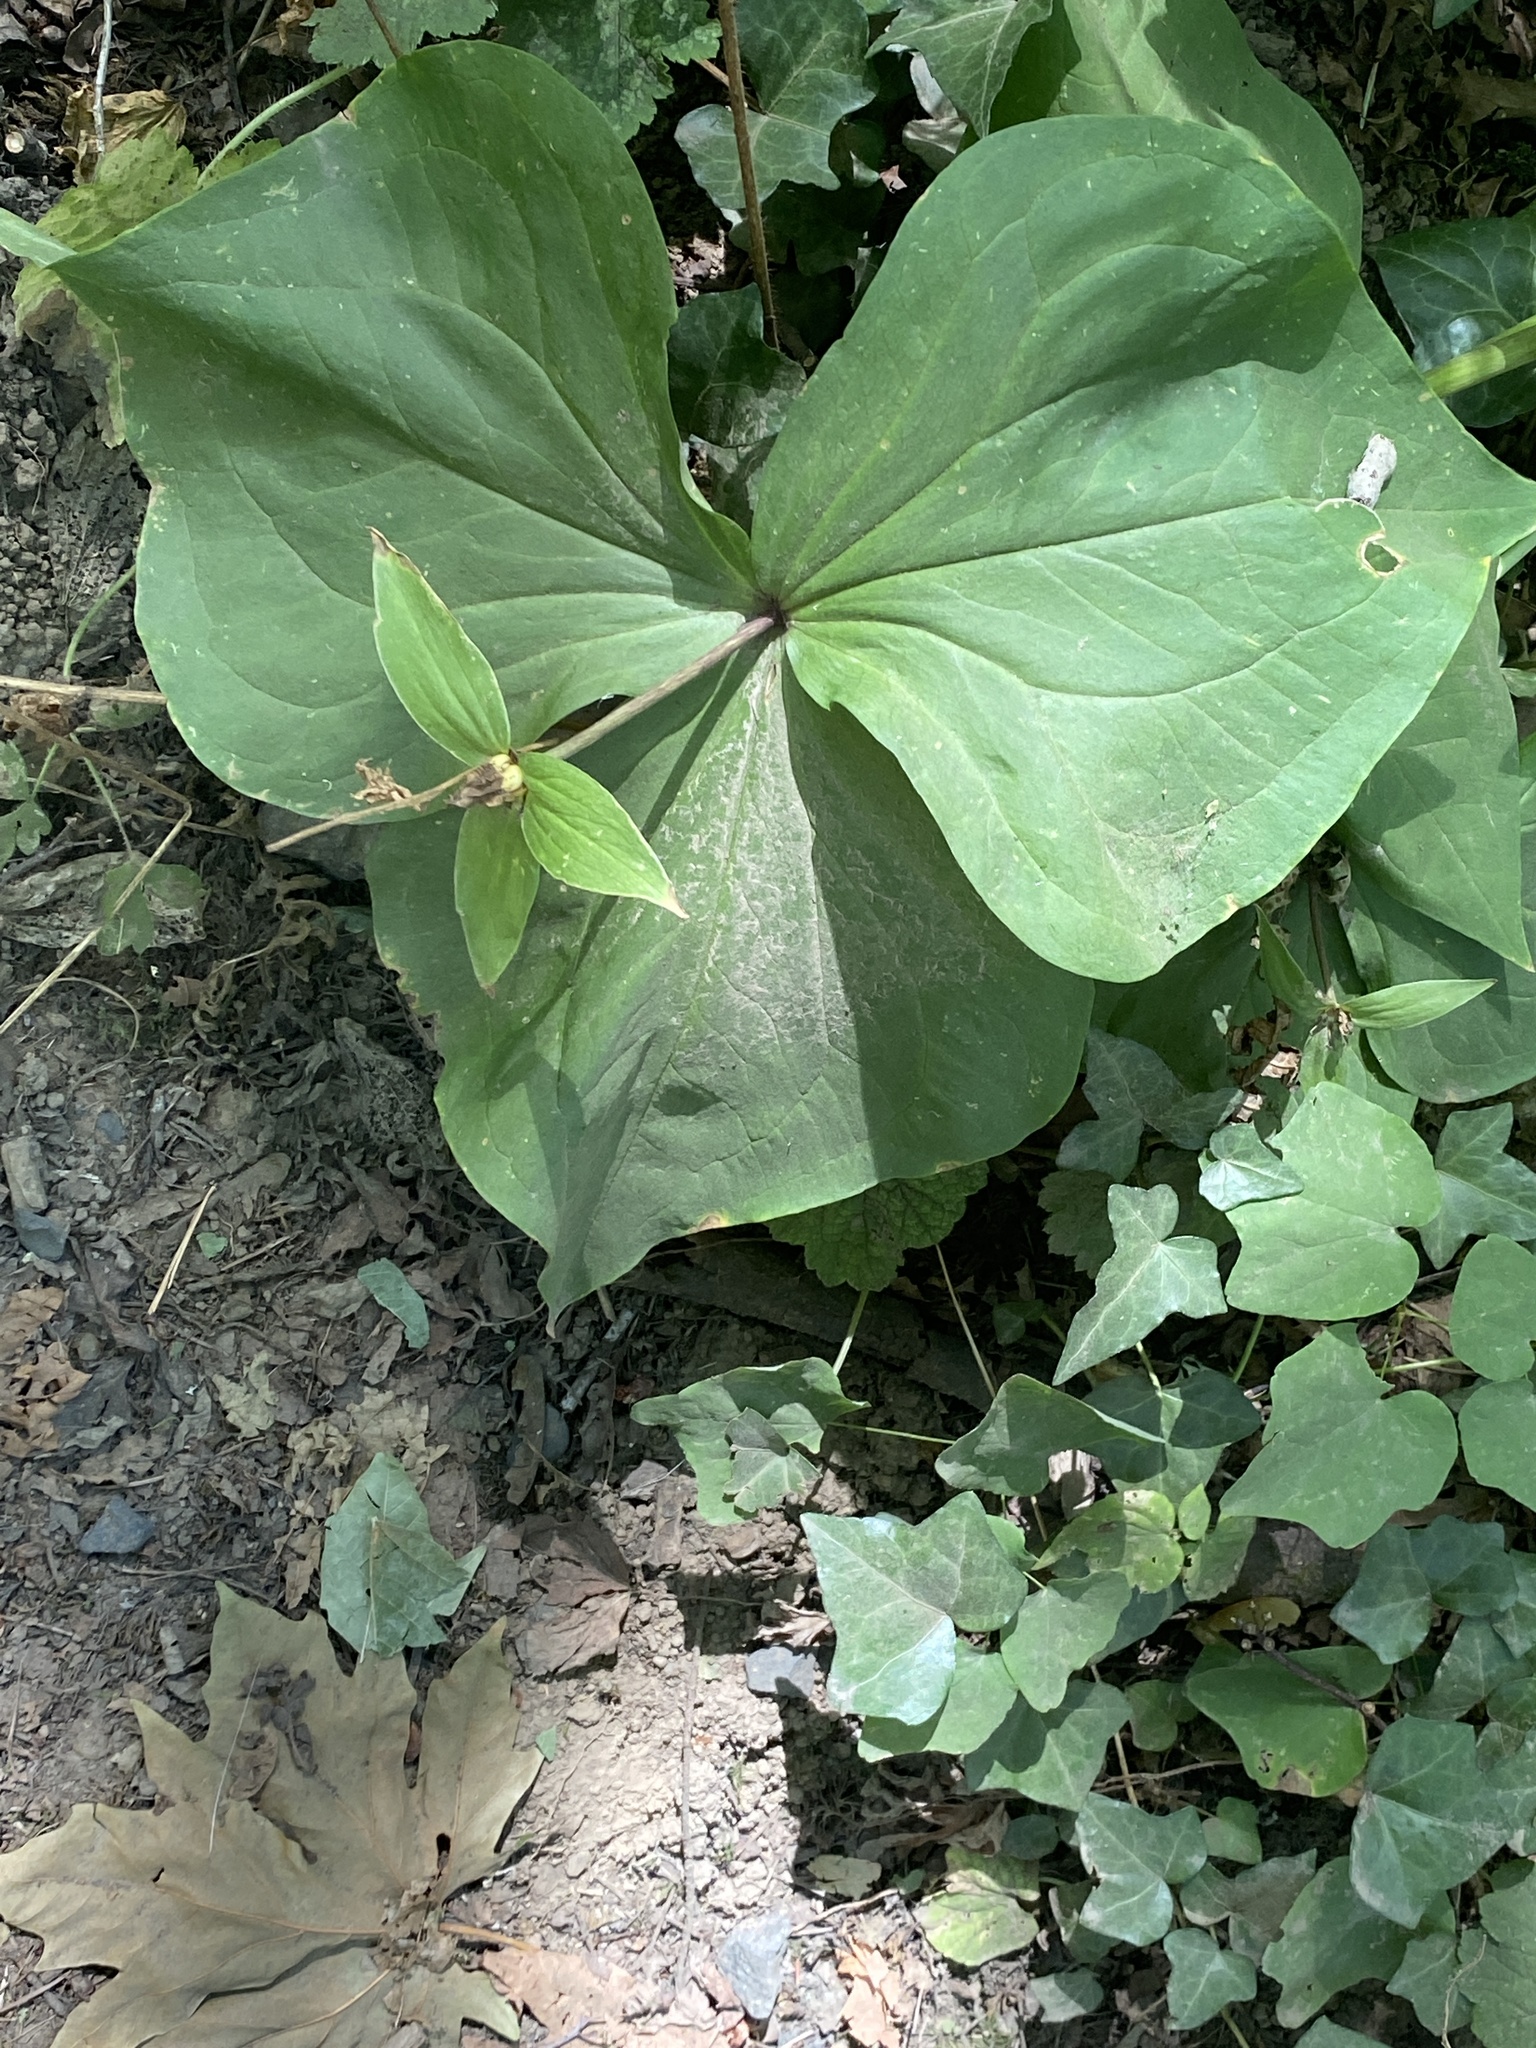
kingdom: Plantae
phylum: Tracheophyta
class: Liliopsida
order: Liliales
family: Melanthiaceae
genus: Trillium
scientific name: Trillium ovatum
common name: Pacific trillium
